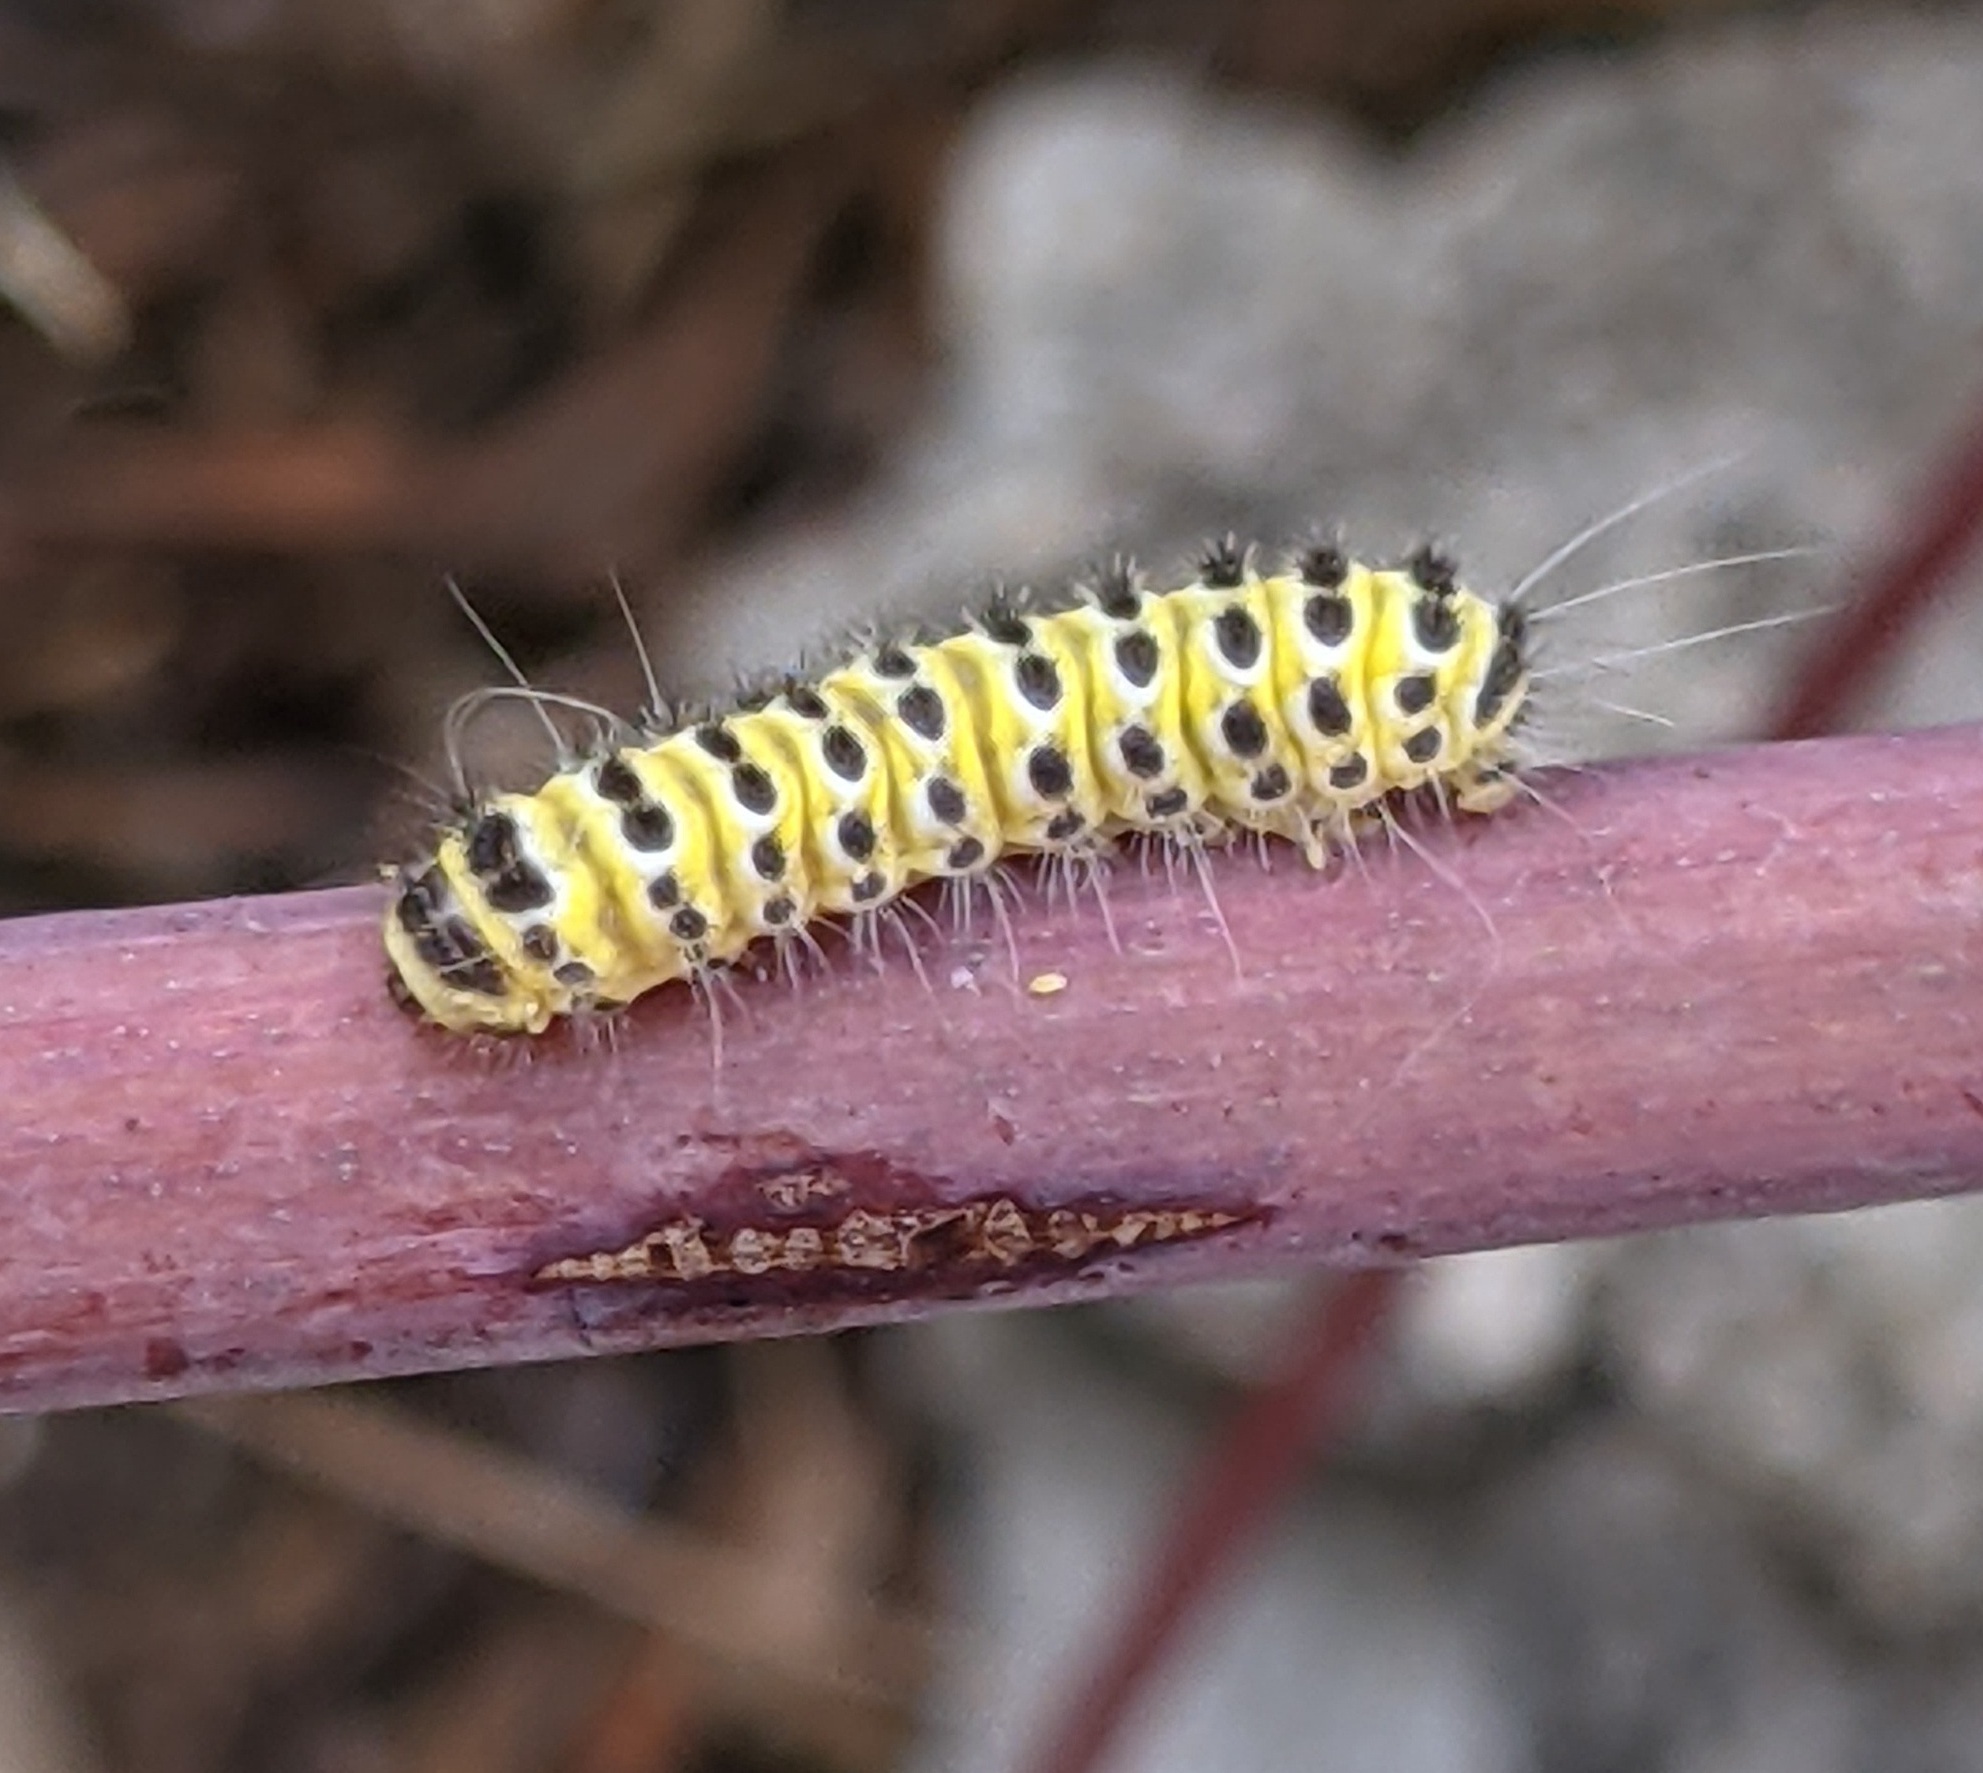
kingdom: Animalia
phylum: Arthropoda
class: Insecta
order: Lepidoptera
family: Zygaenidae
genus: Harrisina
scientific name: Harrisina americana
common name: Grapeleaf skeletonizer moth
